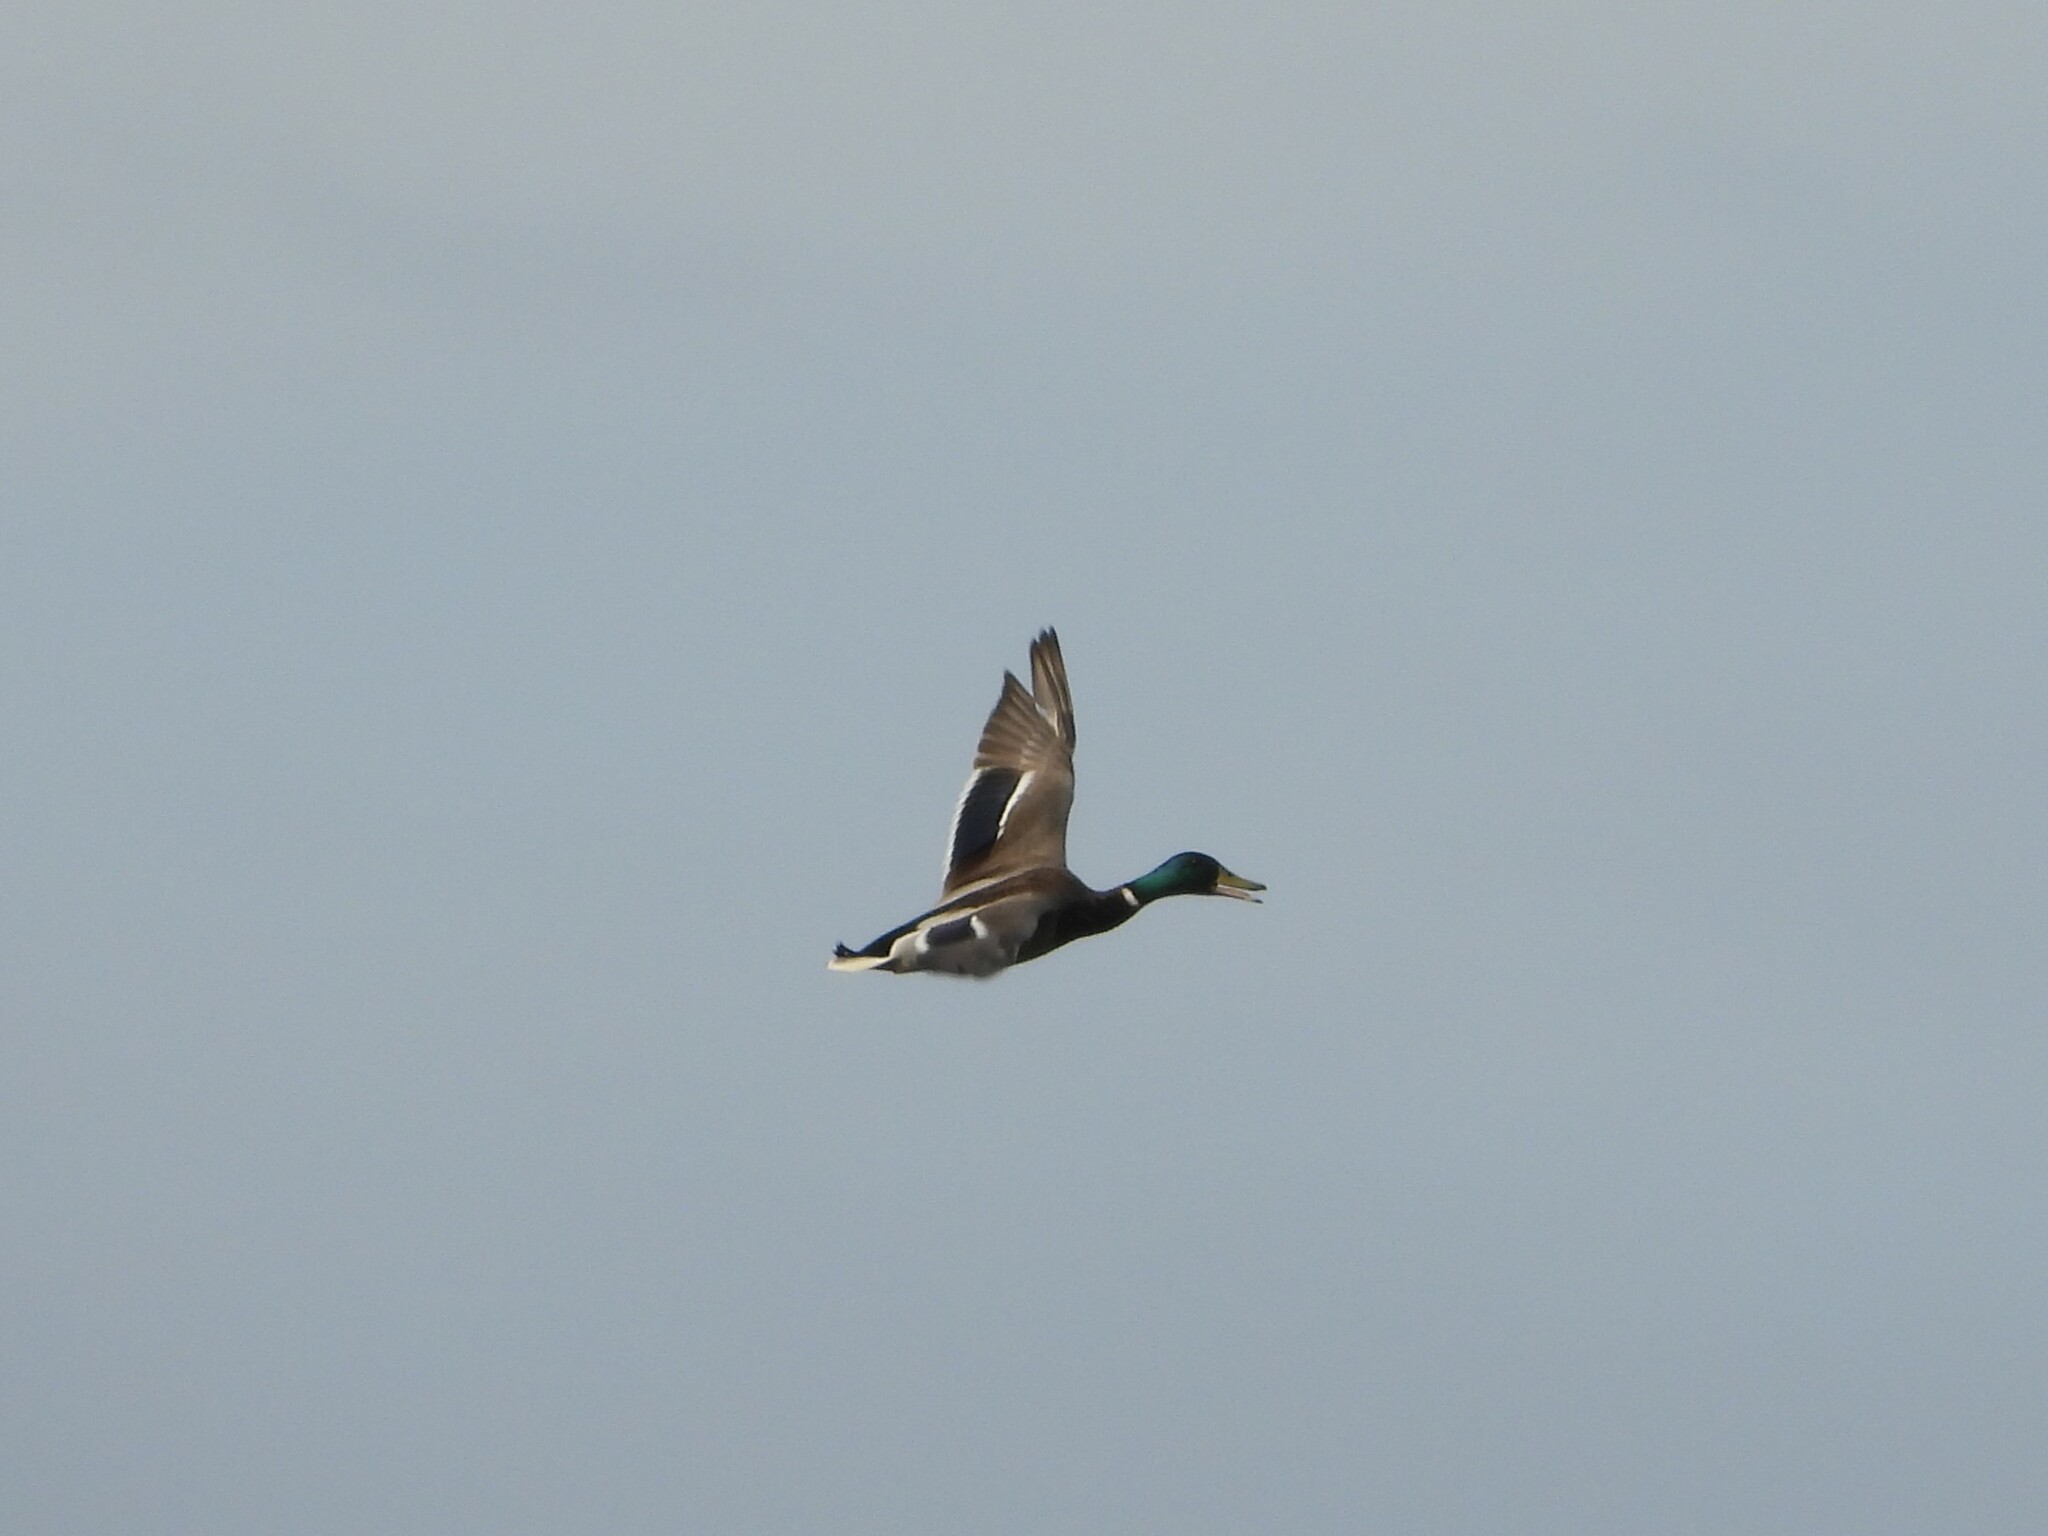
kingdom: Animalia
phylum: Chordata
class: Aves
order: Anseriformes
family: Anatidae
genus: Anas
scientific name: Anas platyrhynchos
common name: Mallard
